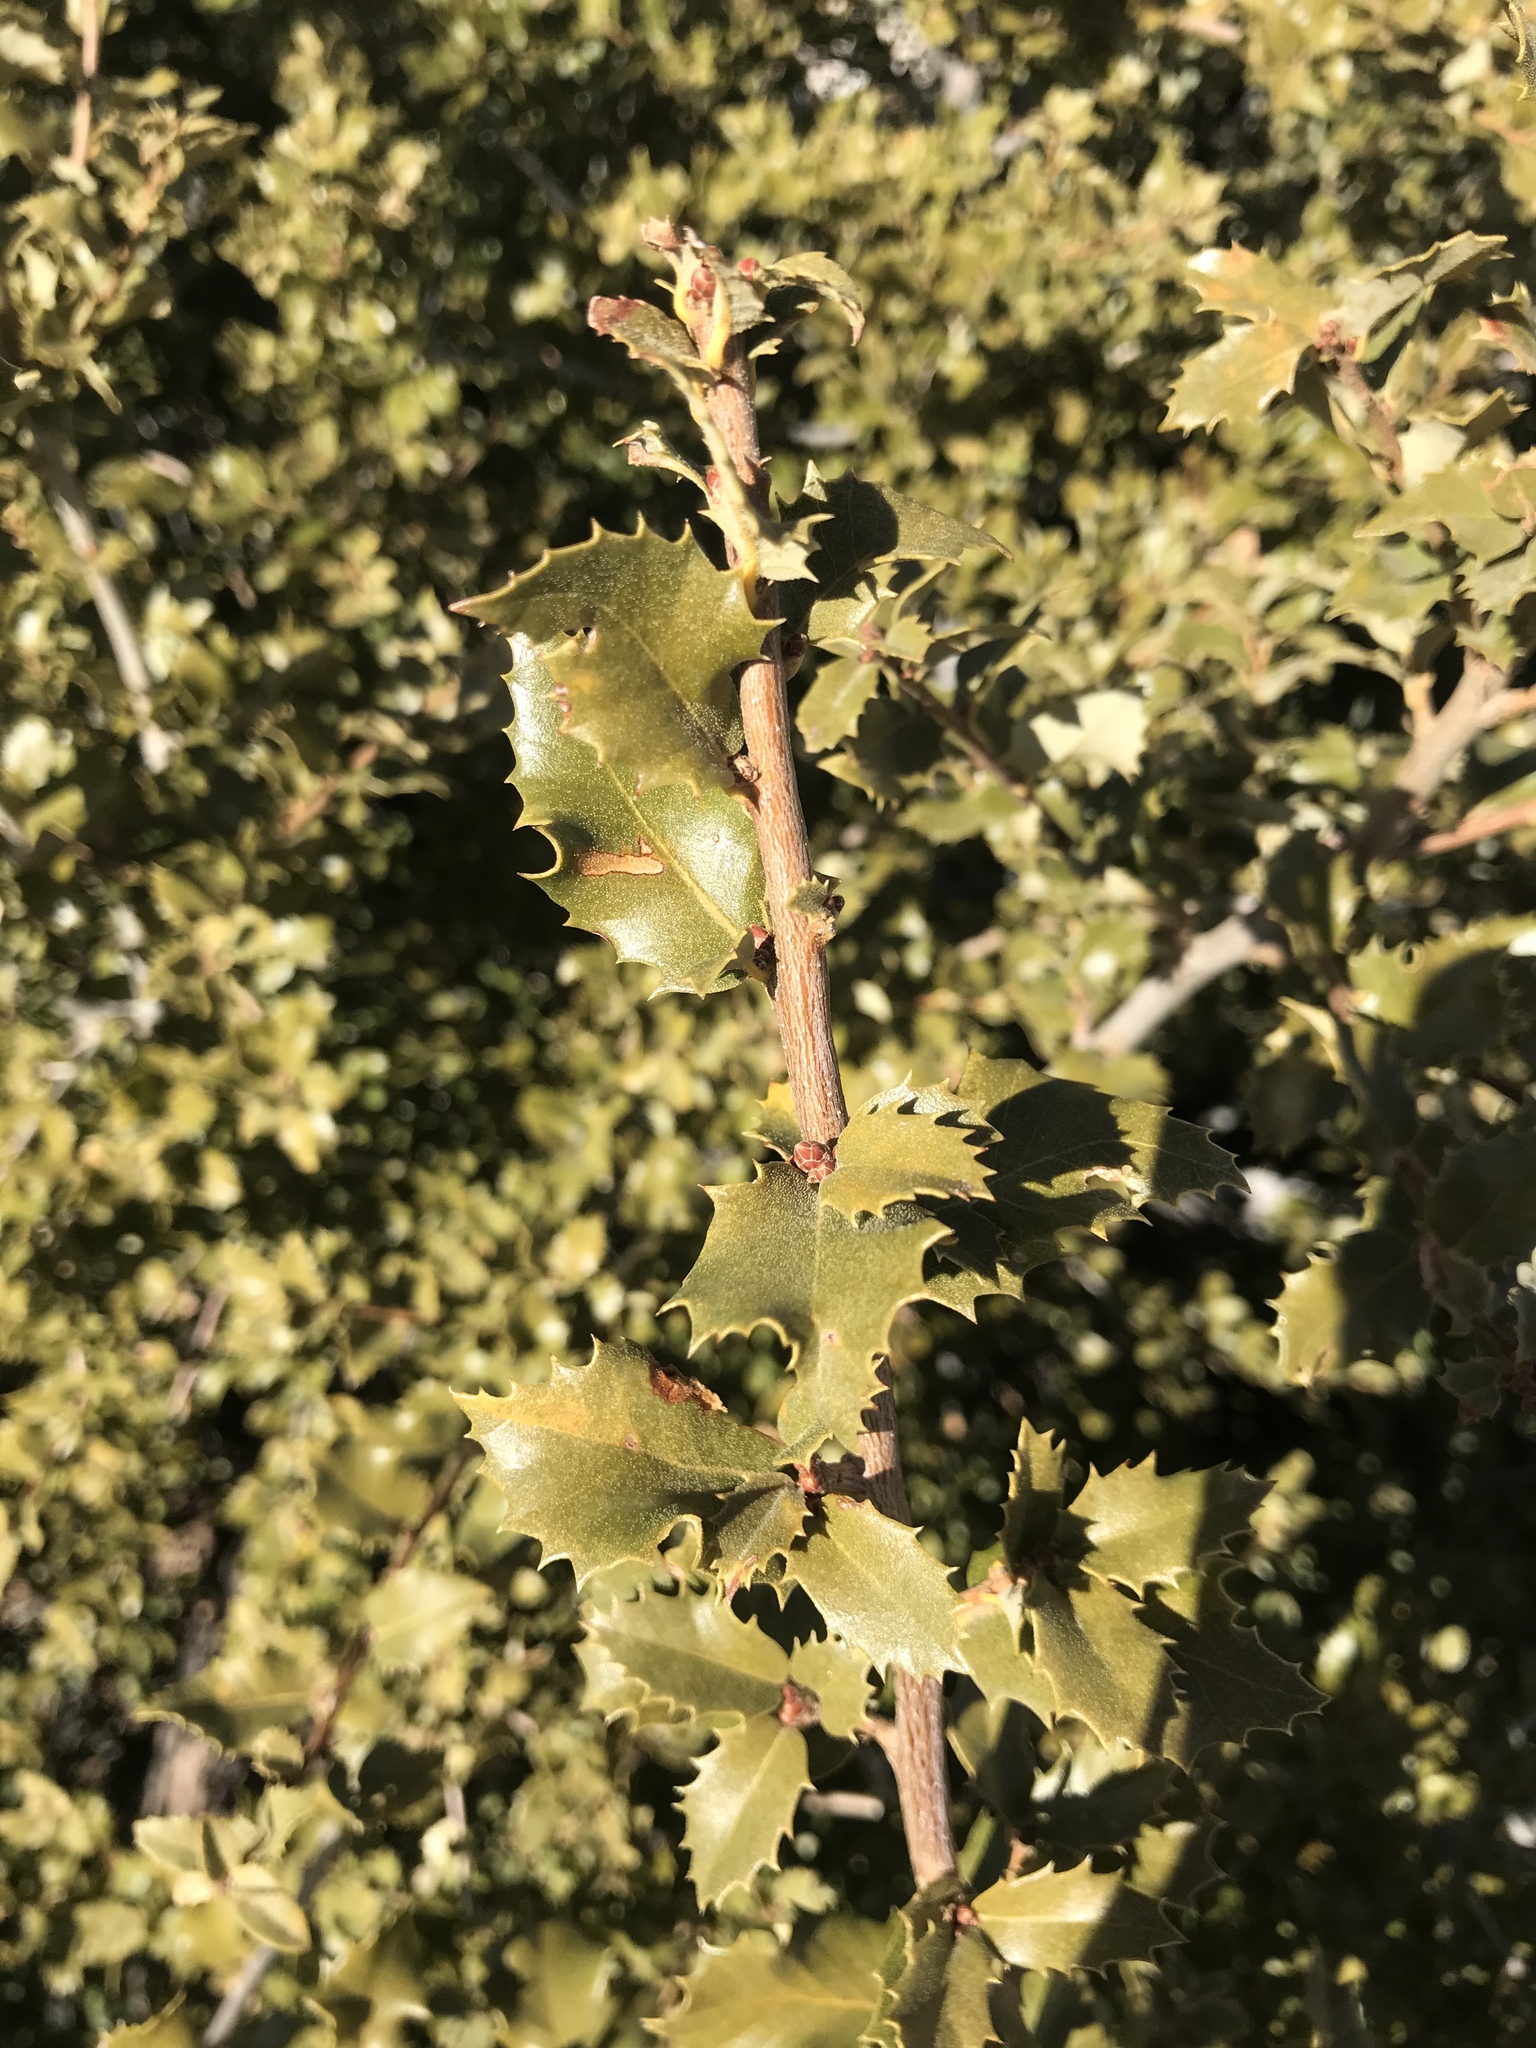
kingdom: Plantae
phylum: Tracheophyta
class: Magnoliopsida
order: Fagales
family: Fagaceae
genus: Quercus
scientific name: Quercus chrysolepis
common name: Canyon live oak
